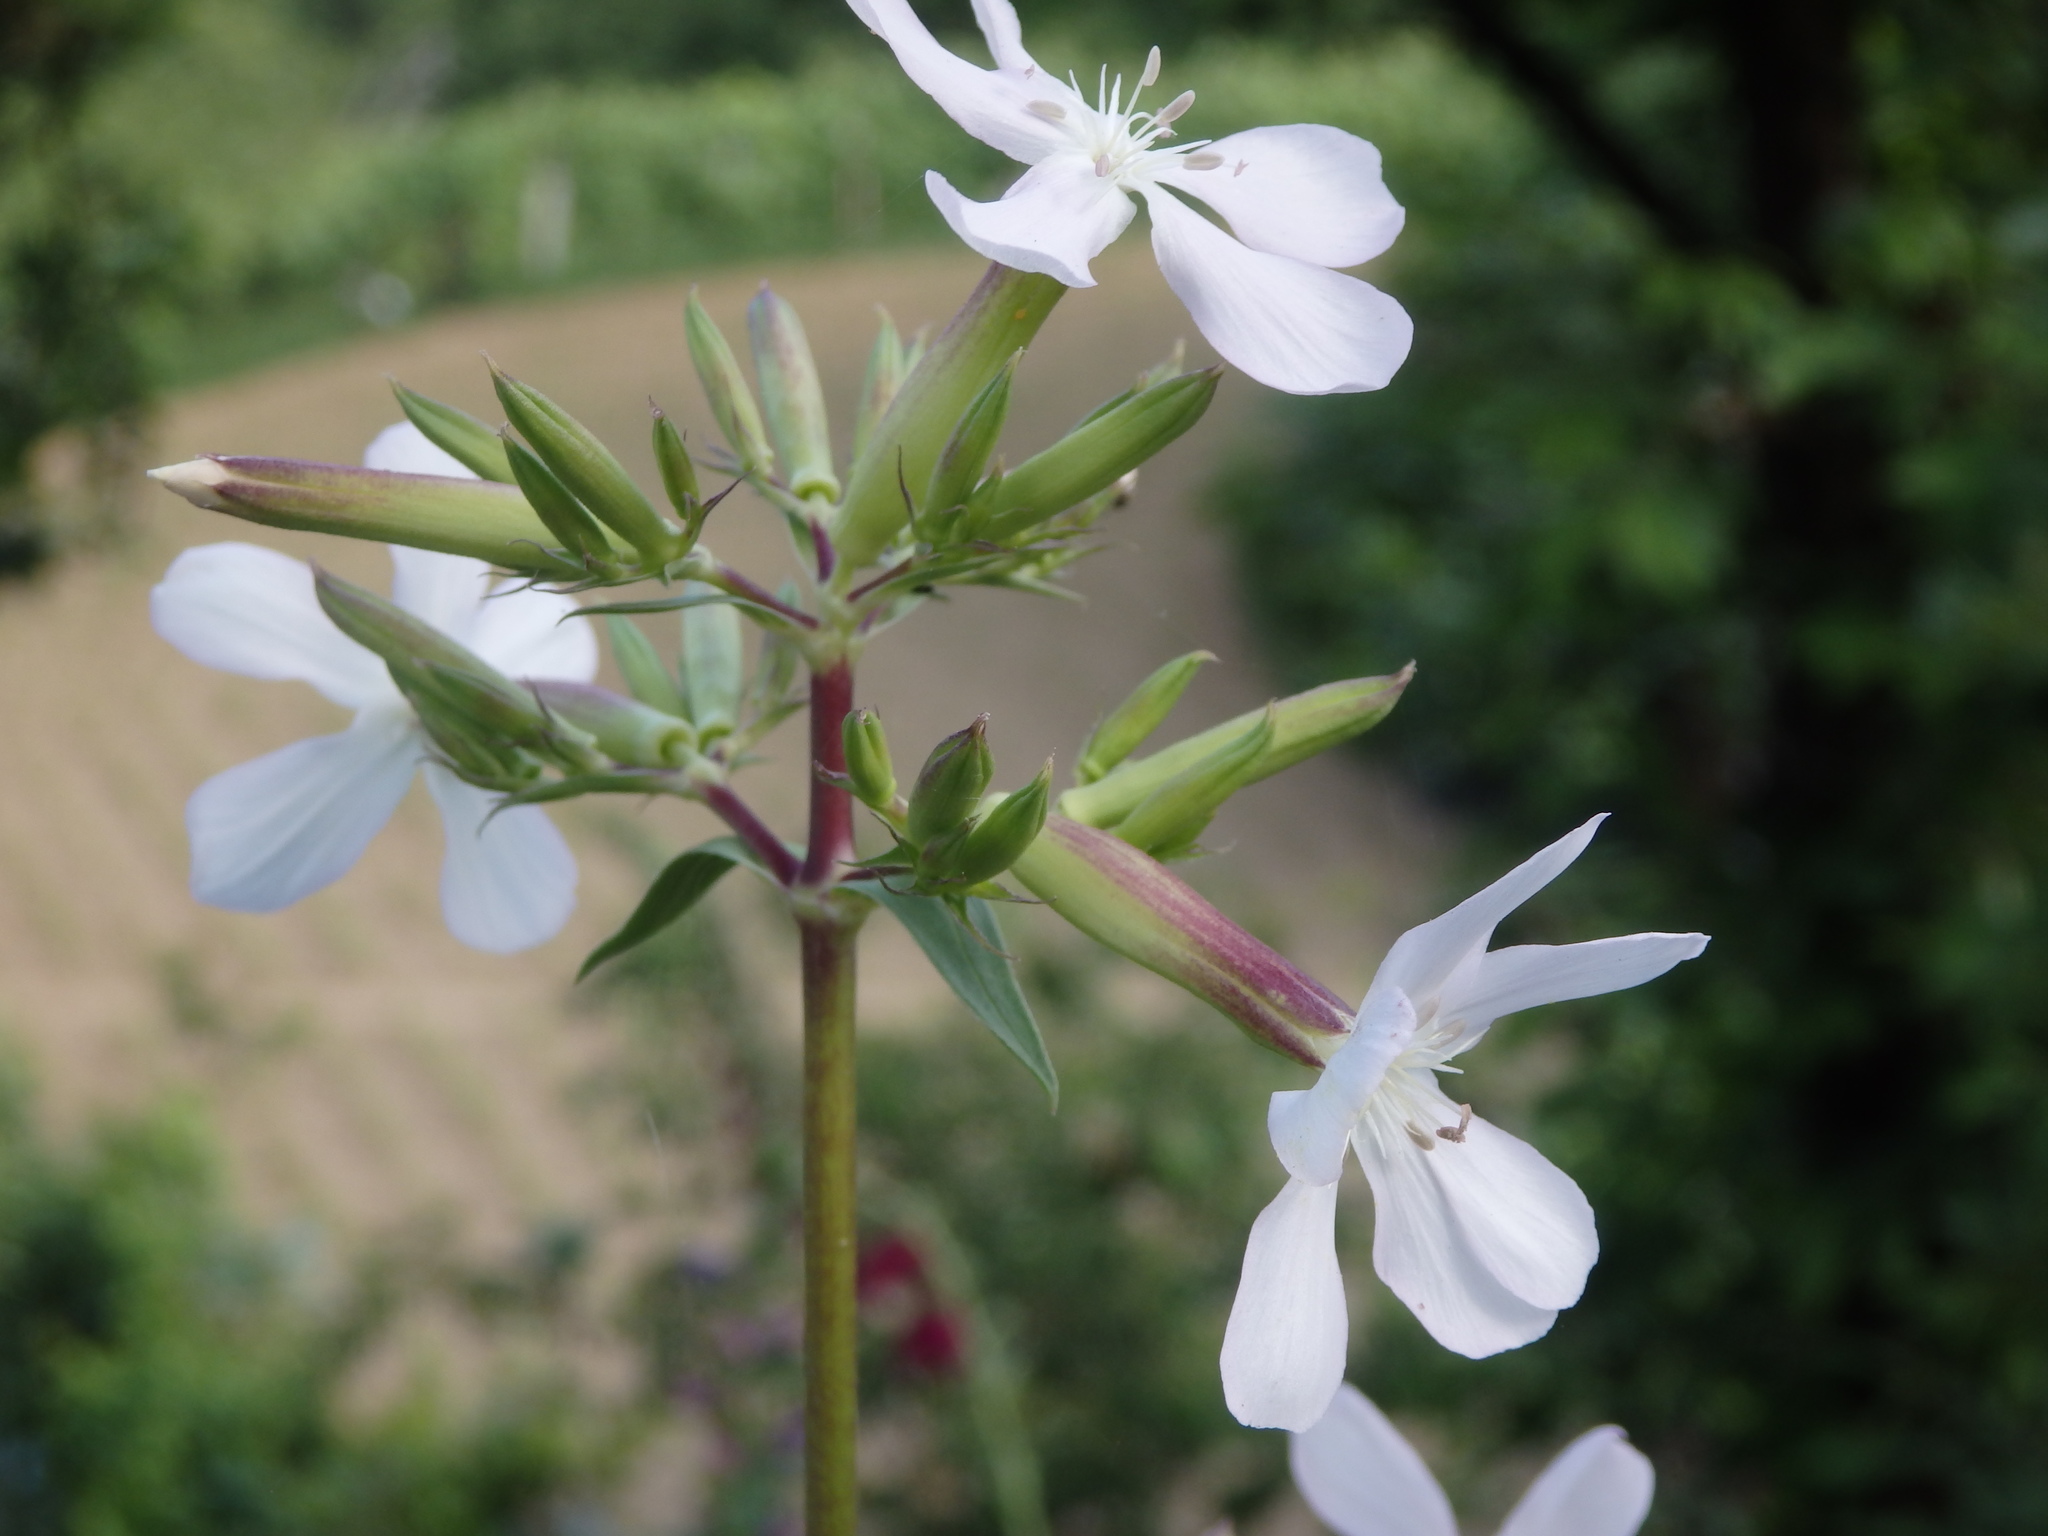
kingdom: Plantae
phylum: Tracheophyta
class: Magnoliopsida
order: Caryophyllales
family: Caryophyllaceae
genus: Saponaria
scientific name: Saponaria officinalis
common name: Soapwort
